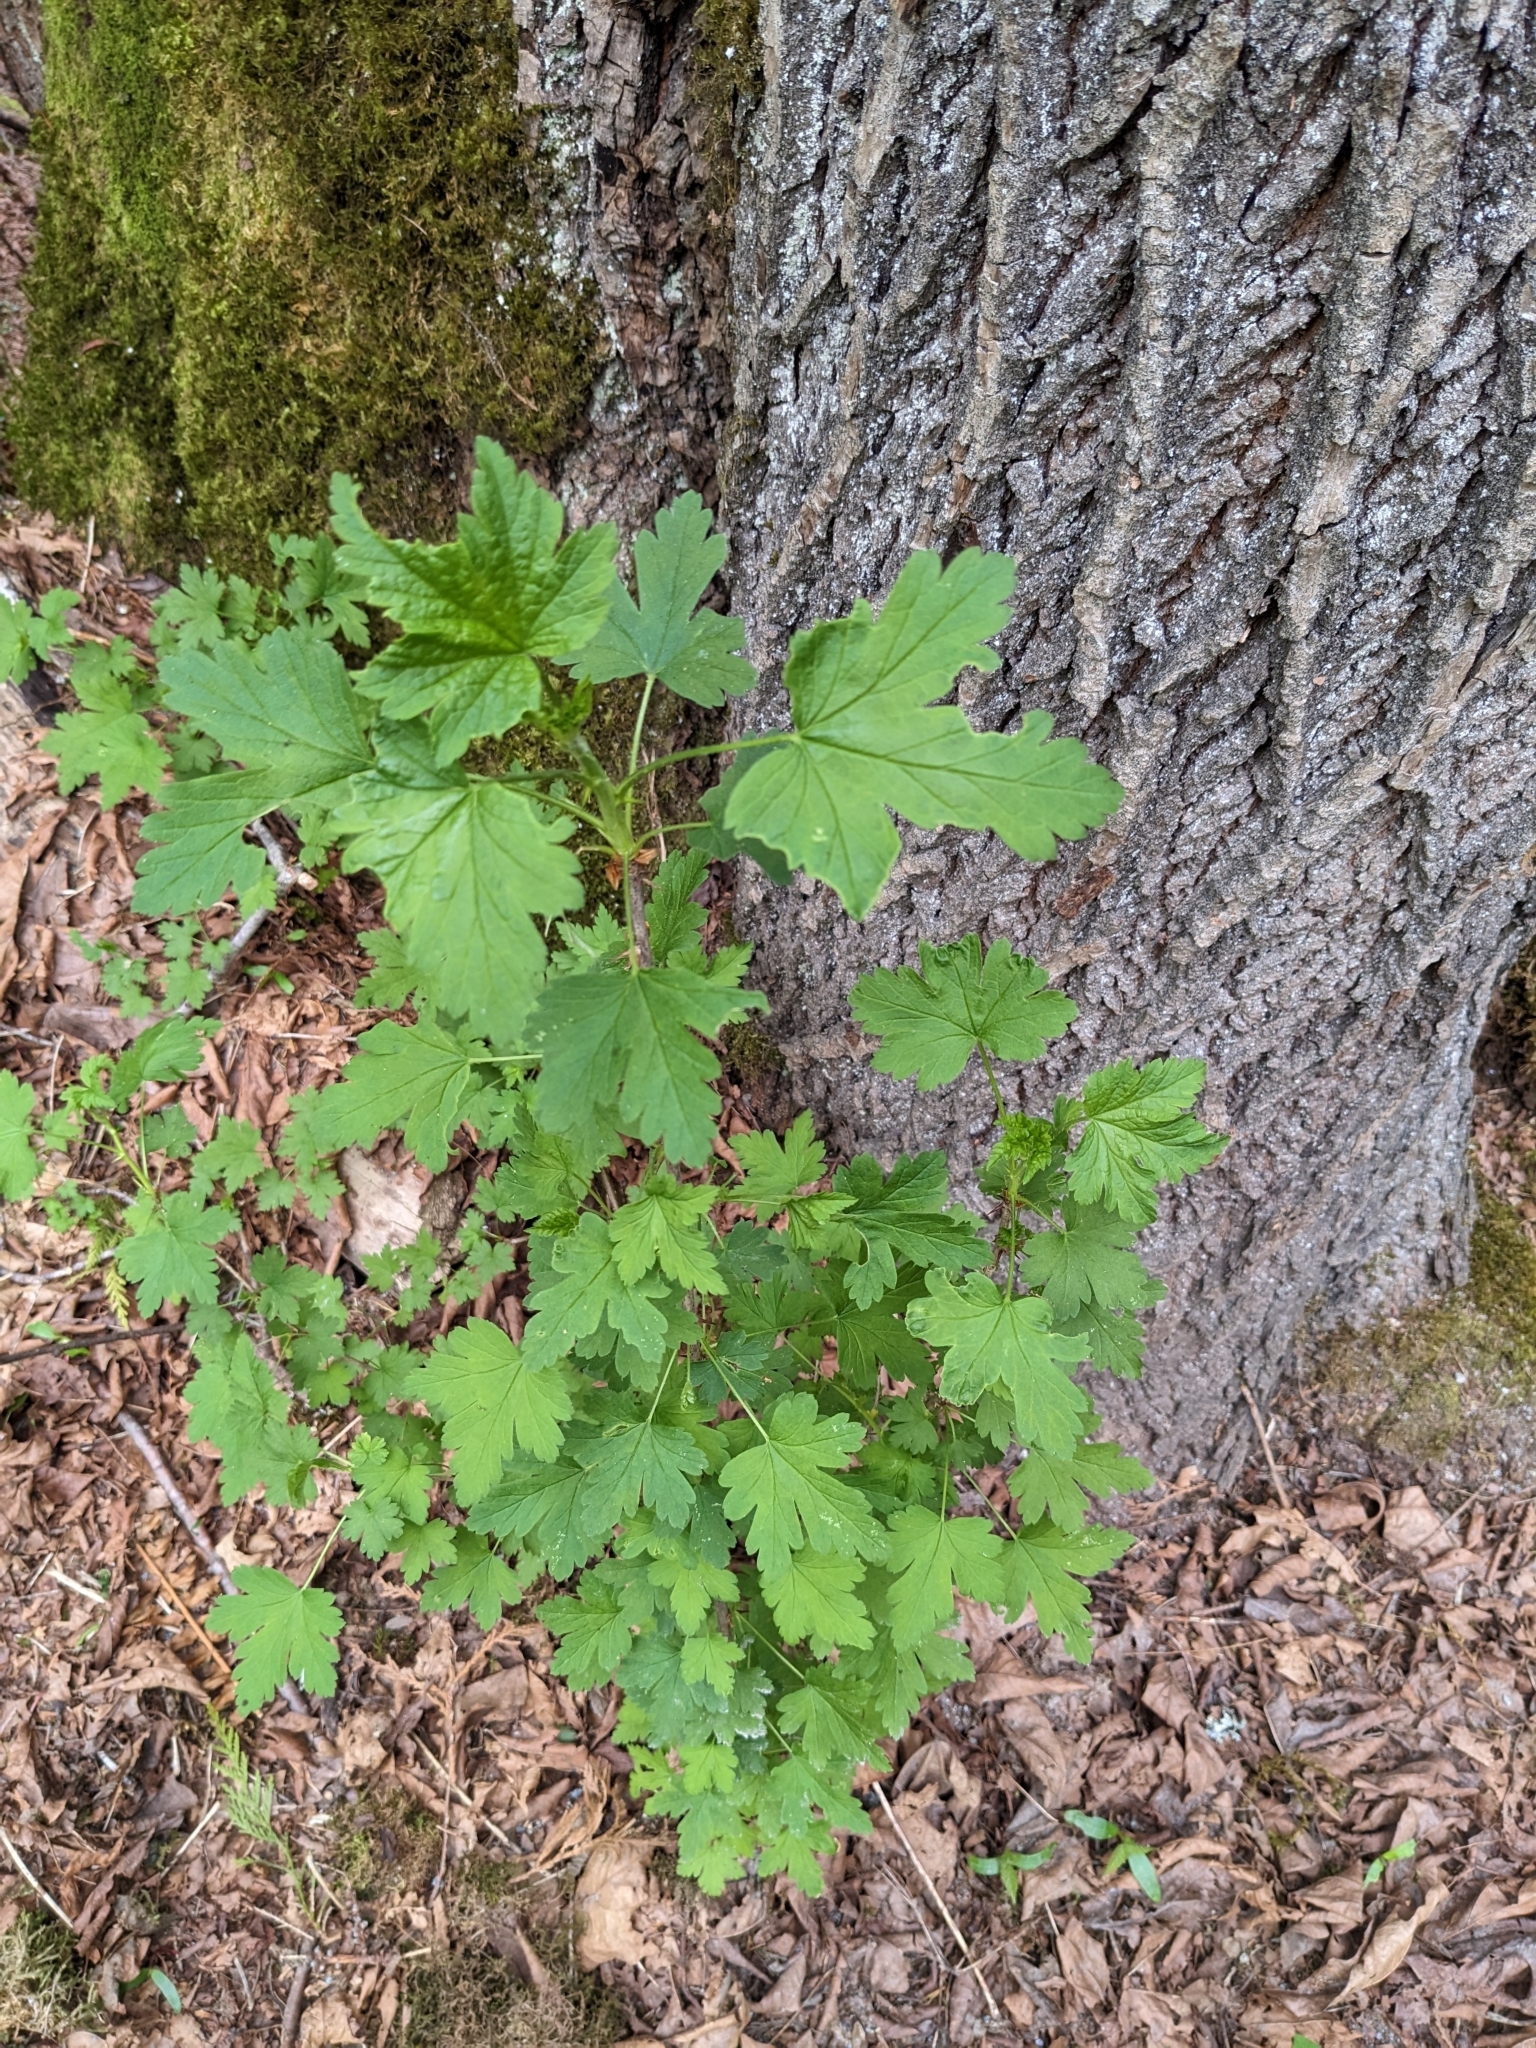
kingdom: Plantae
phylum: Tracheophyta
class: Magnoliopsida
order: Saxifragales
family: Grossulariaceae
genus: Ribes
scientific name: Ribes lacustre
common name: Black gooseberry
